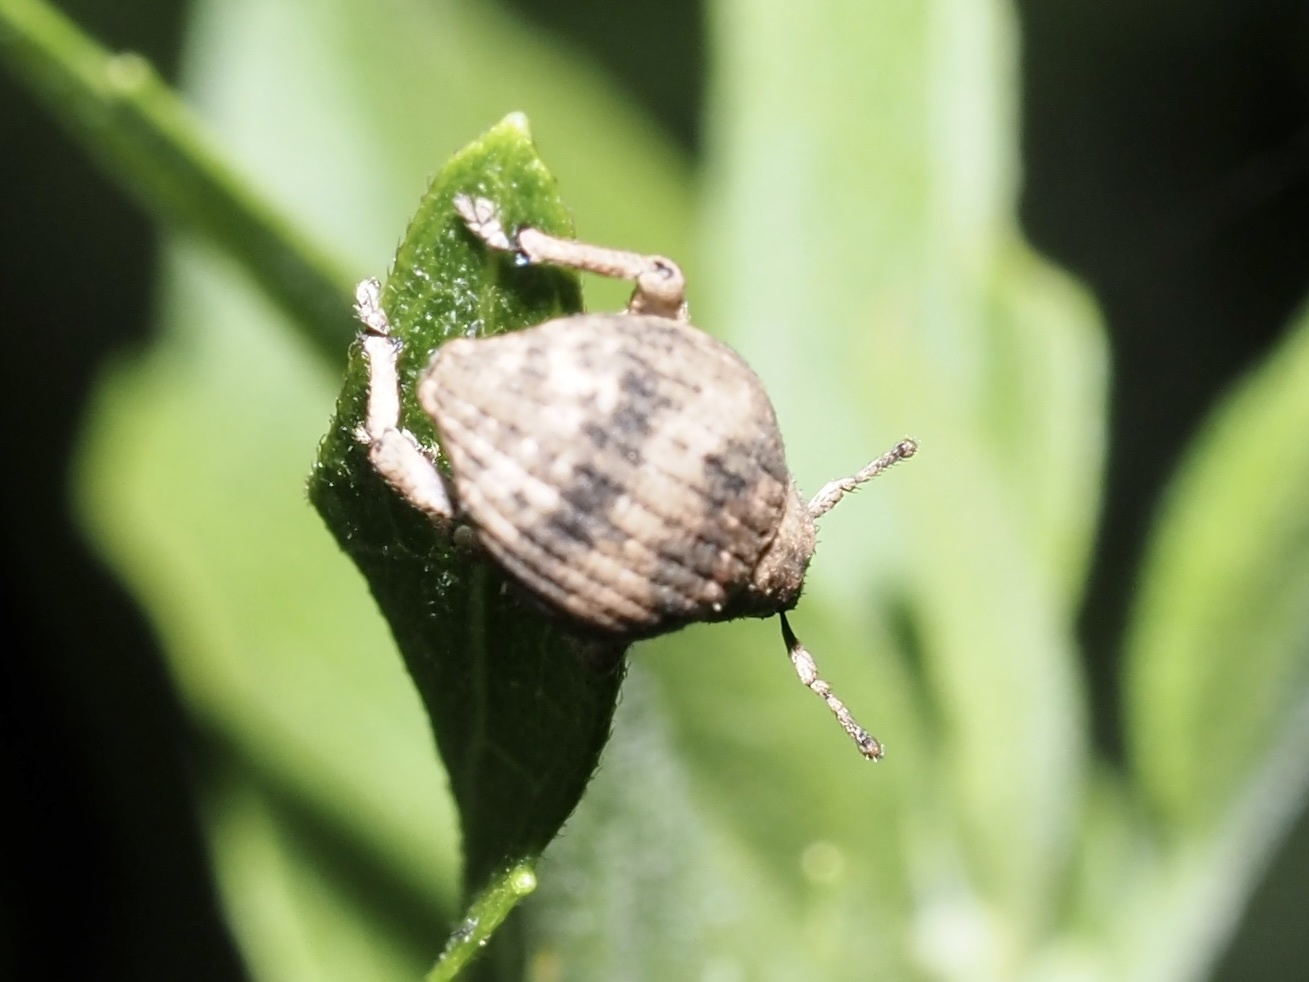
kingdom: Animalia
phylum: Arthropoda
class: Insecta
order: Coleoptera
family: Curculionidae
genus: Pseudocneorhinus
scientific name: Pseudocneorhinus bifasciatus
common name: Two-banded japanese weevil
